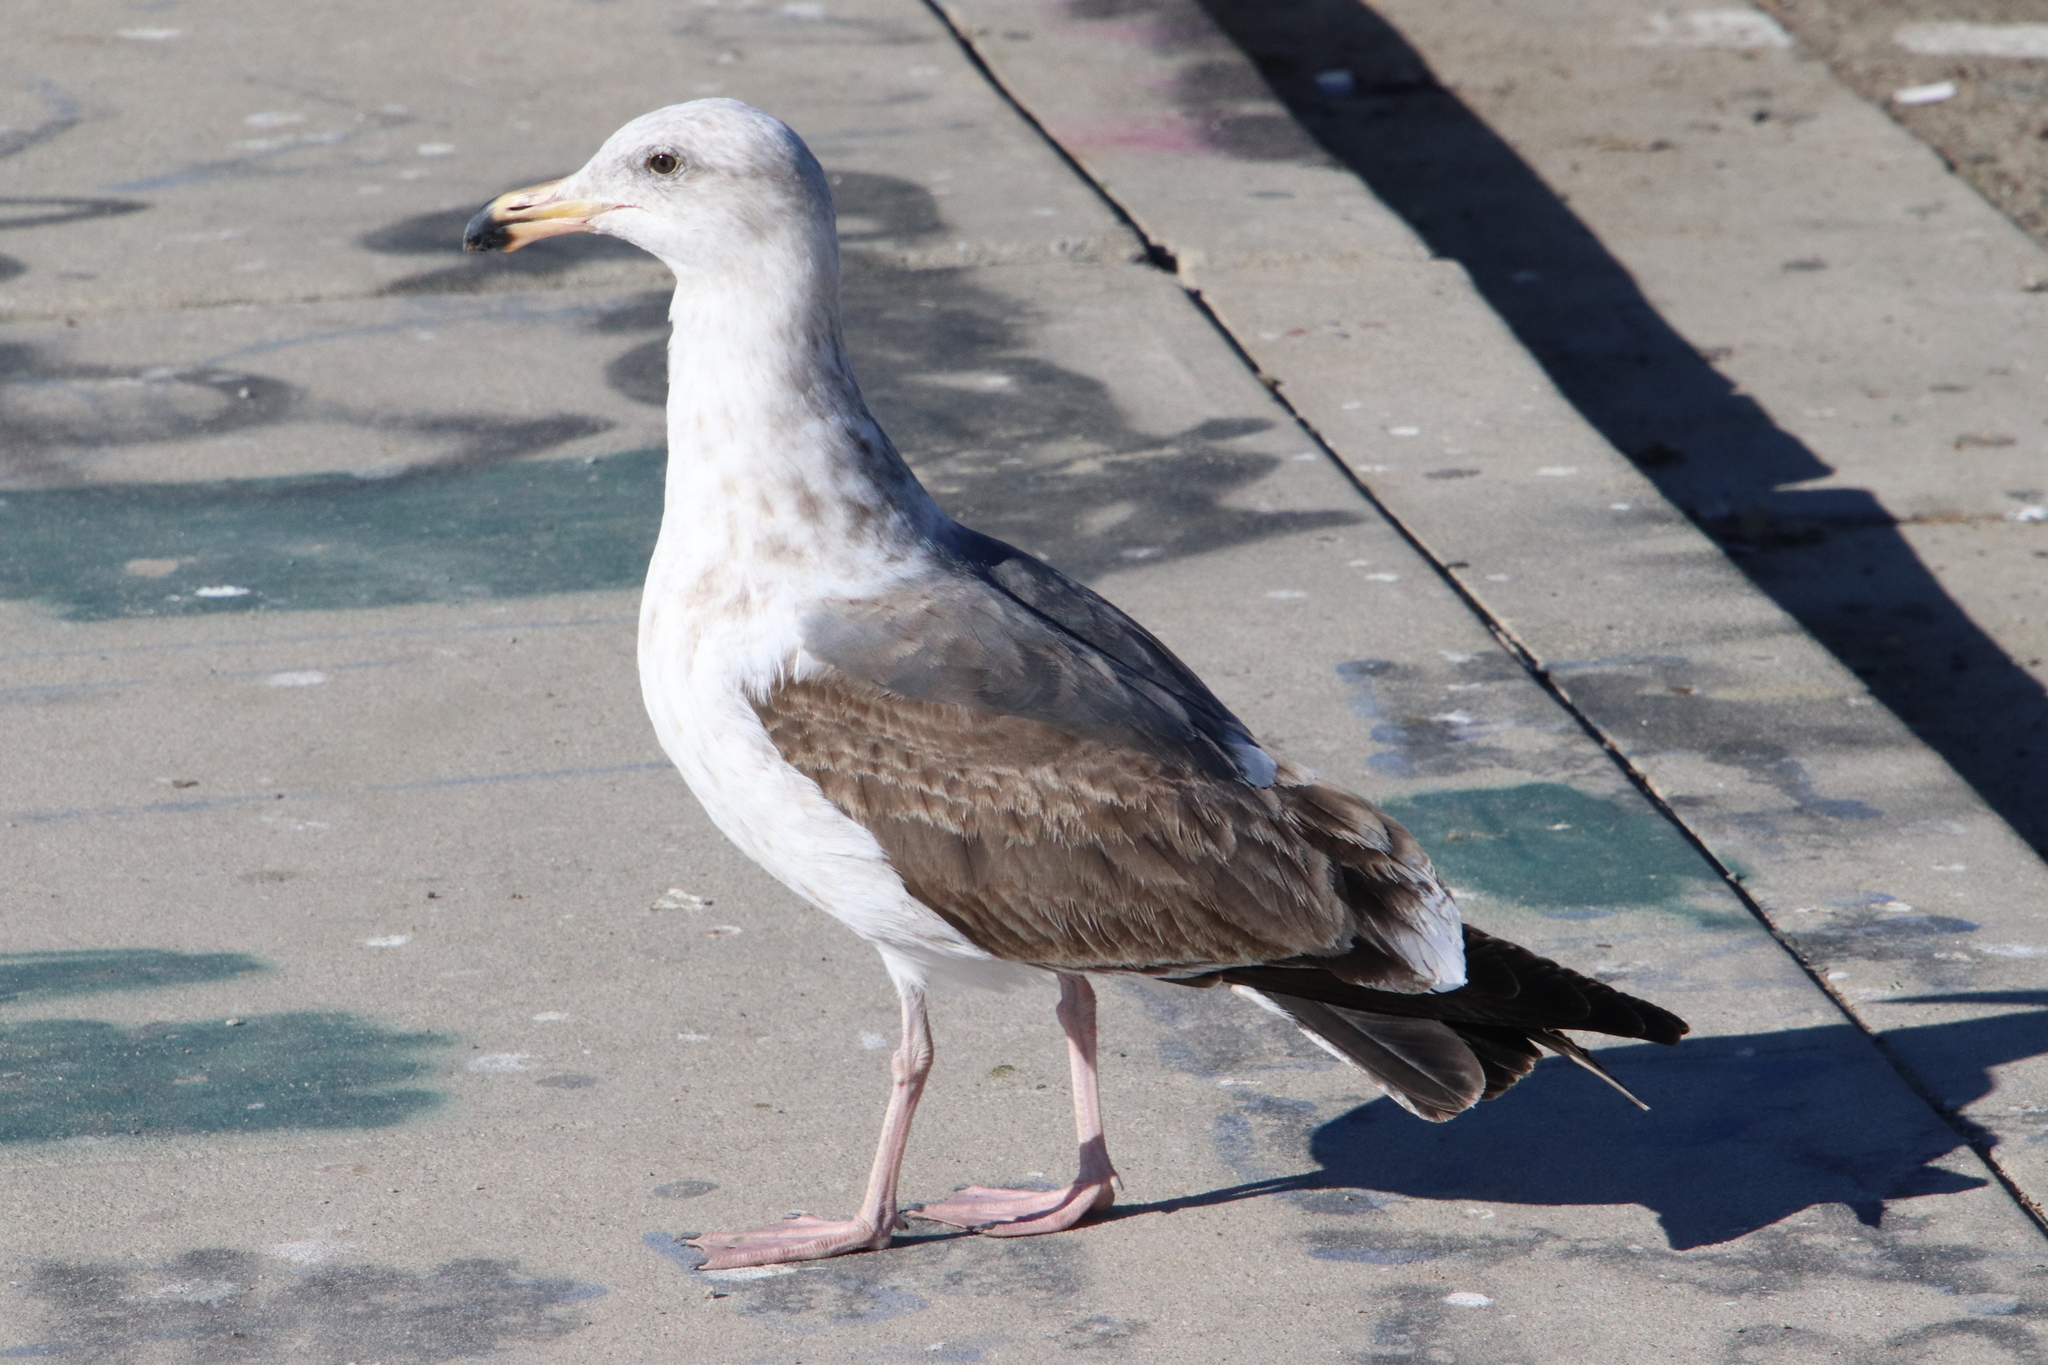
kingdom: Animalia
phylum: Chordata
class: Aves
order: Charadriiformes
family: Laridae
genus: Larus
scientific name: Larus occidentalis
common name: Western gull
